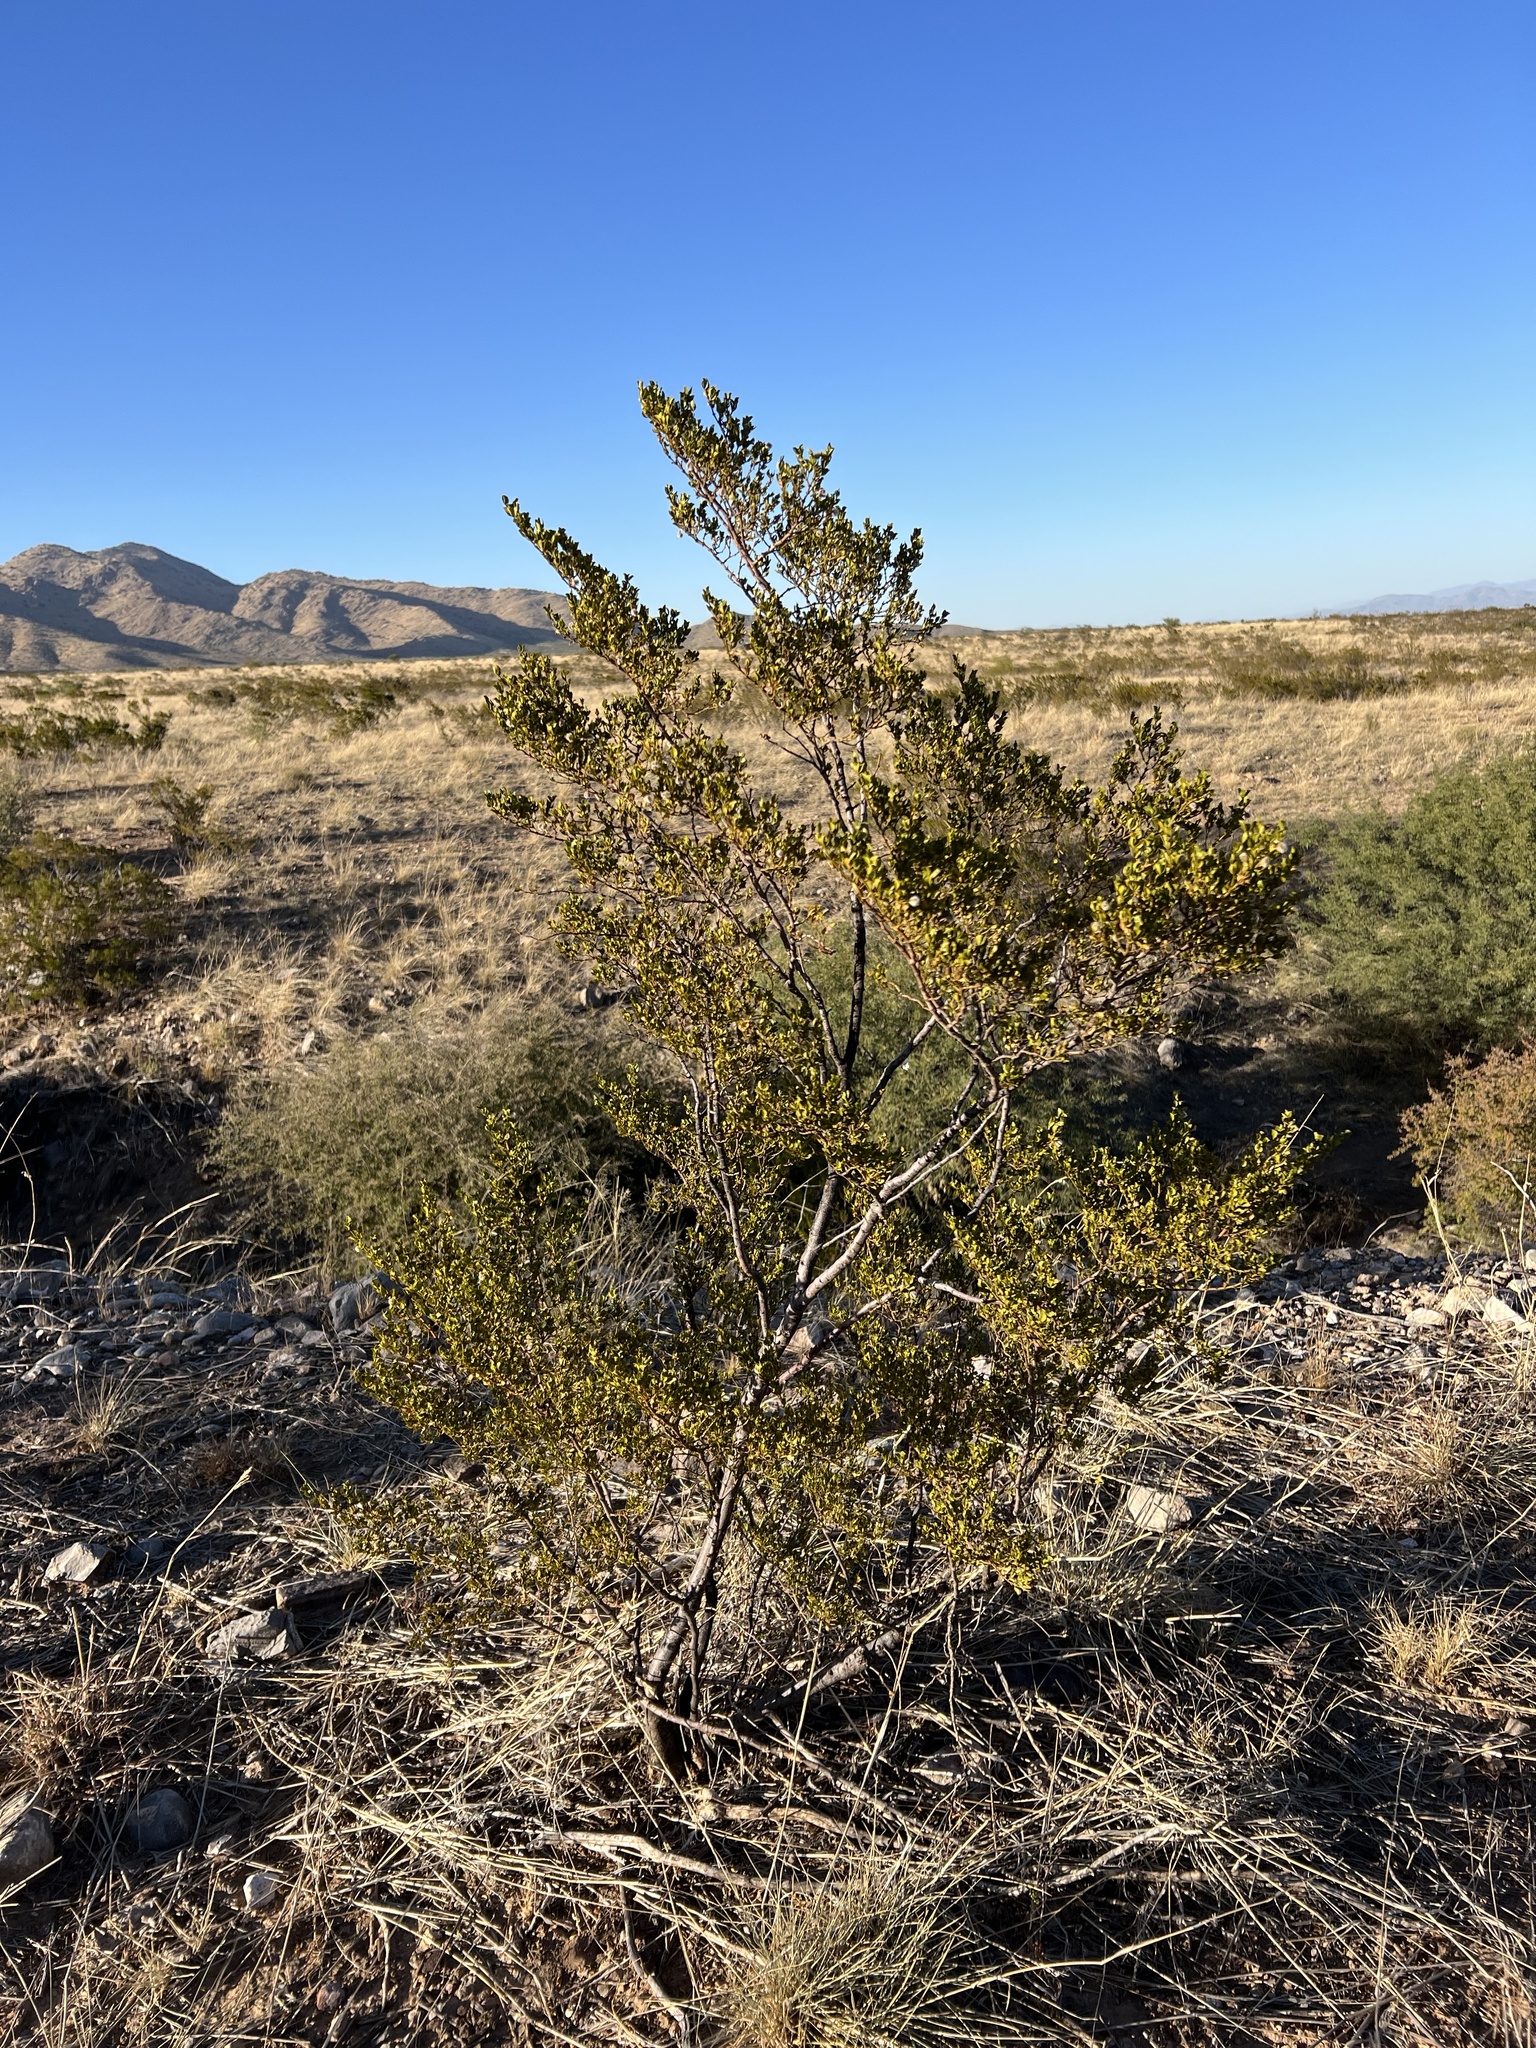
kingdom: Plantae
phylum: Tracheophyta
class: Magnoliopsida
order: Zygophyllales
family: Zygophyllaceae
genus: Larrea
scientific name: Larrea tridentata
